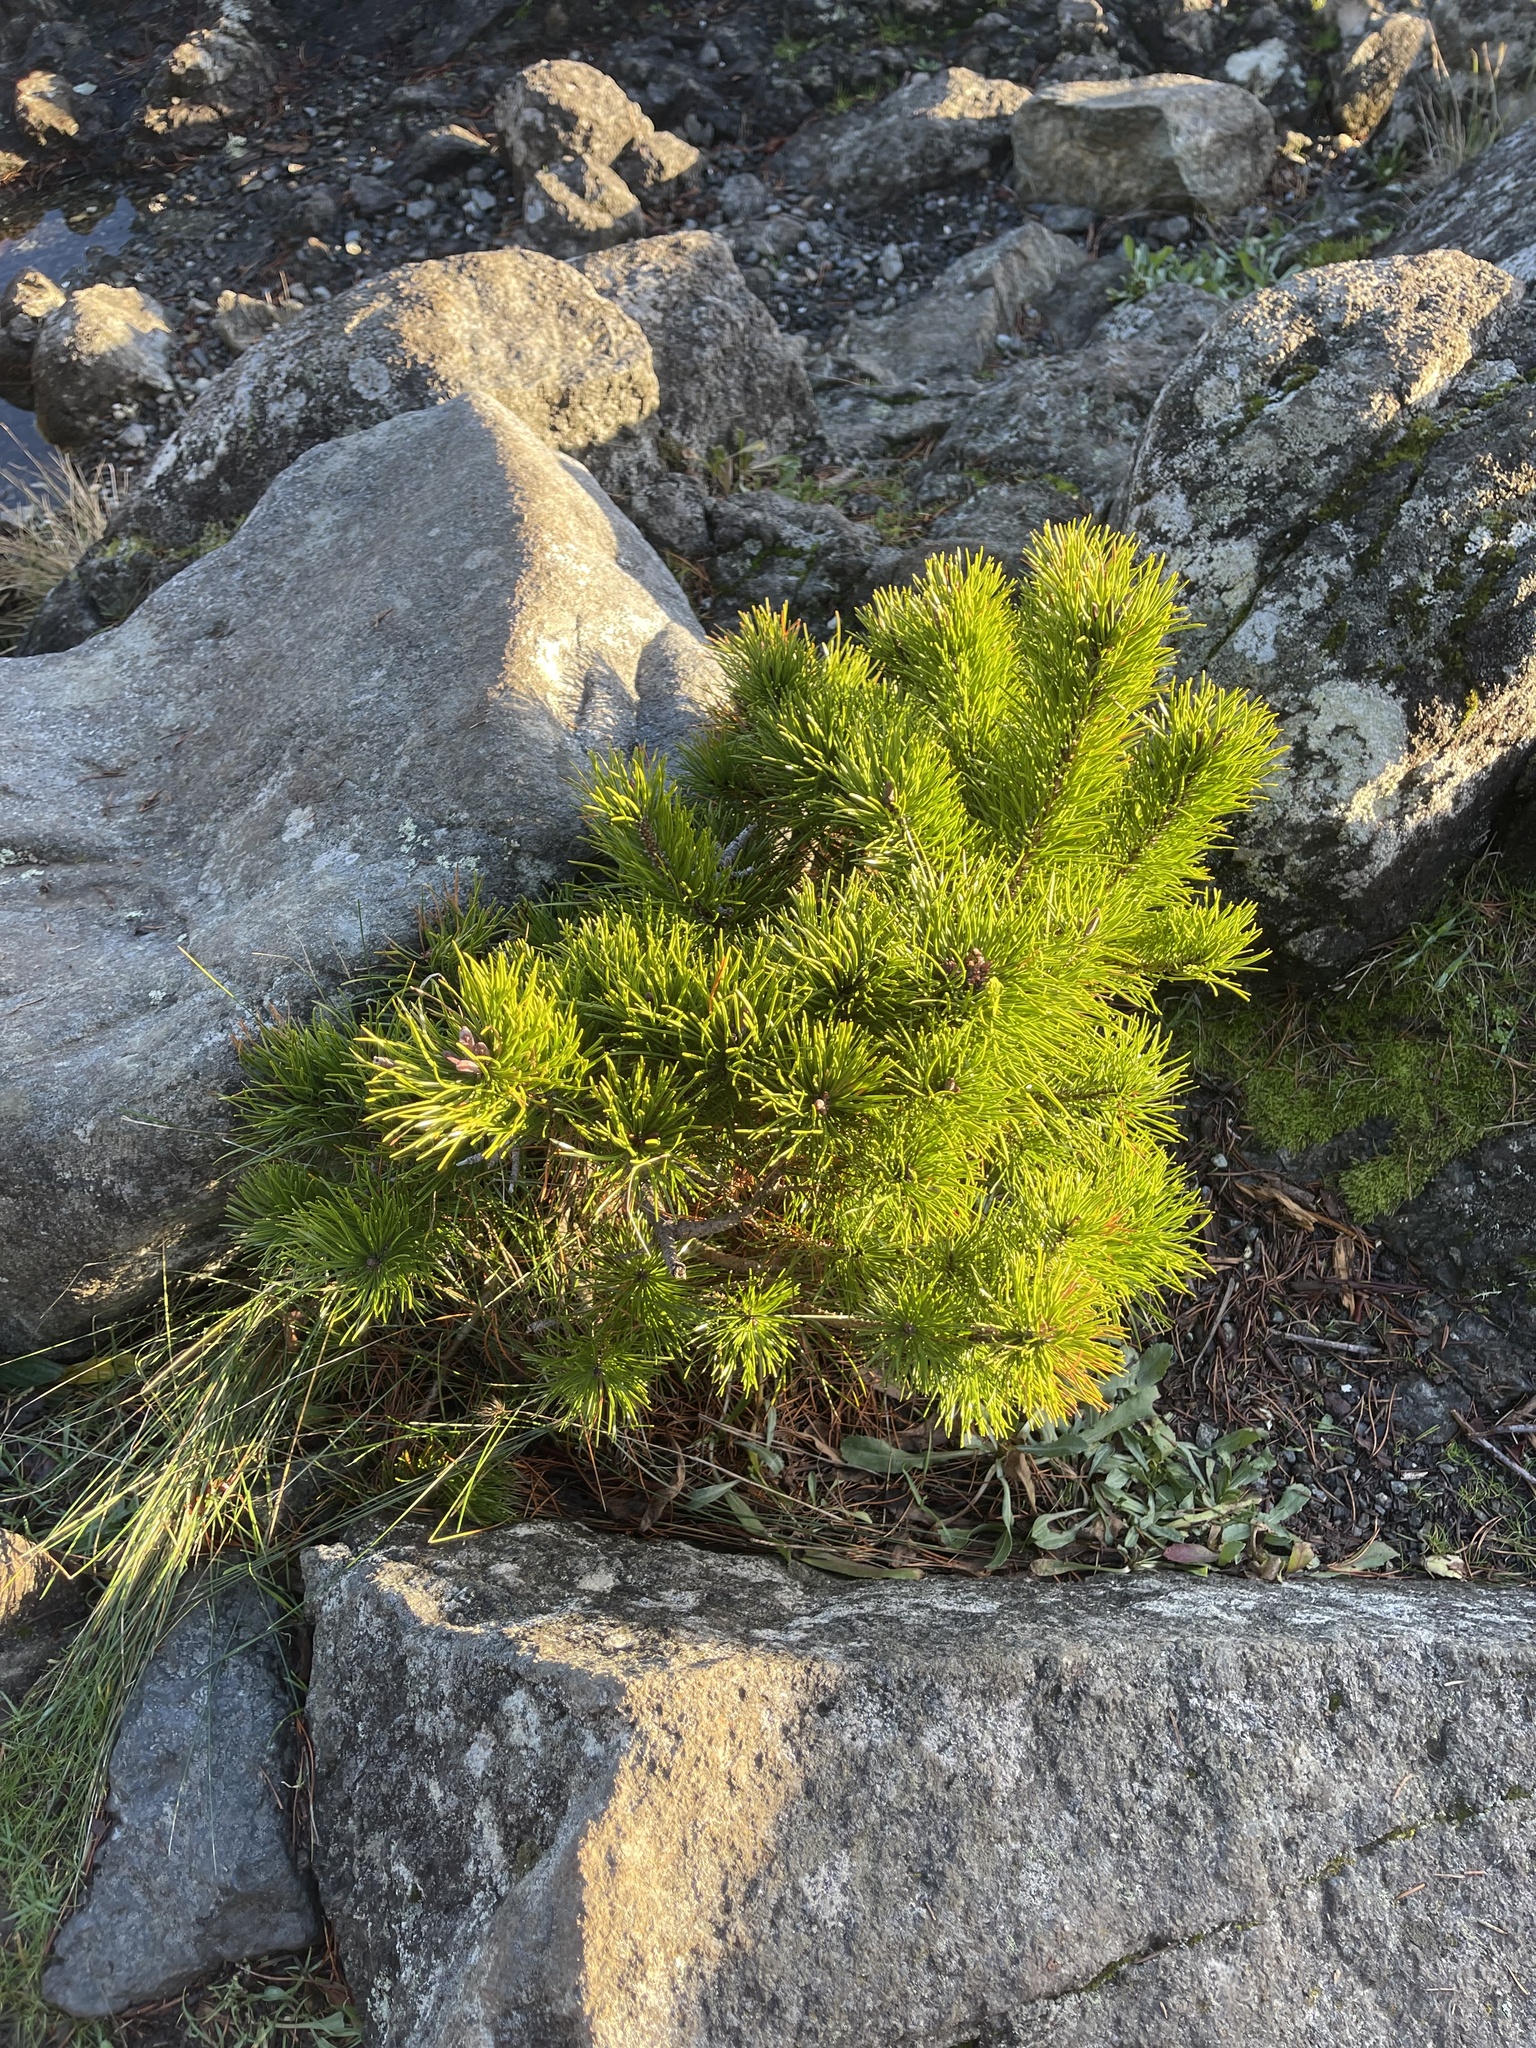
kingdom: Plantae
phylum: Tracheophyta
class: Pinopsida
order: Pinales
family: Pinaceae
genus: Pinus
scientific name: Pinus contorta
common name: Lodgepole pine
